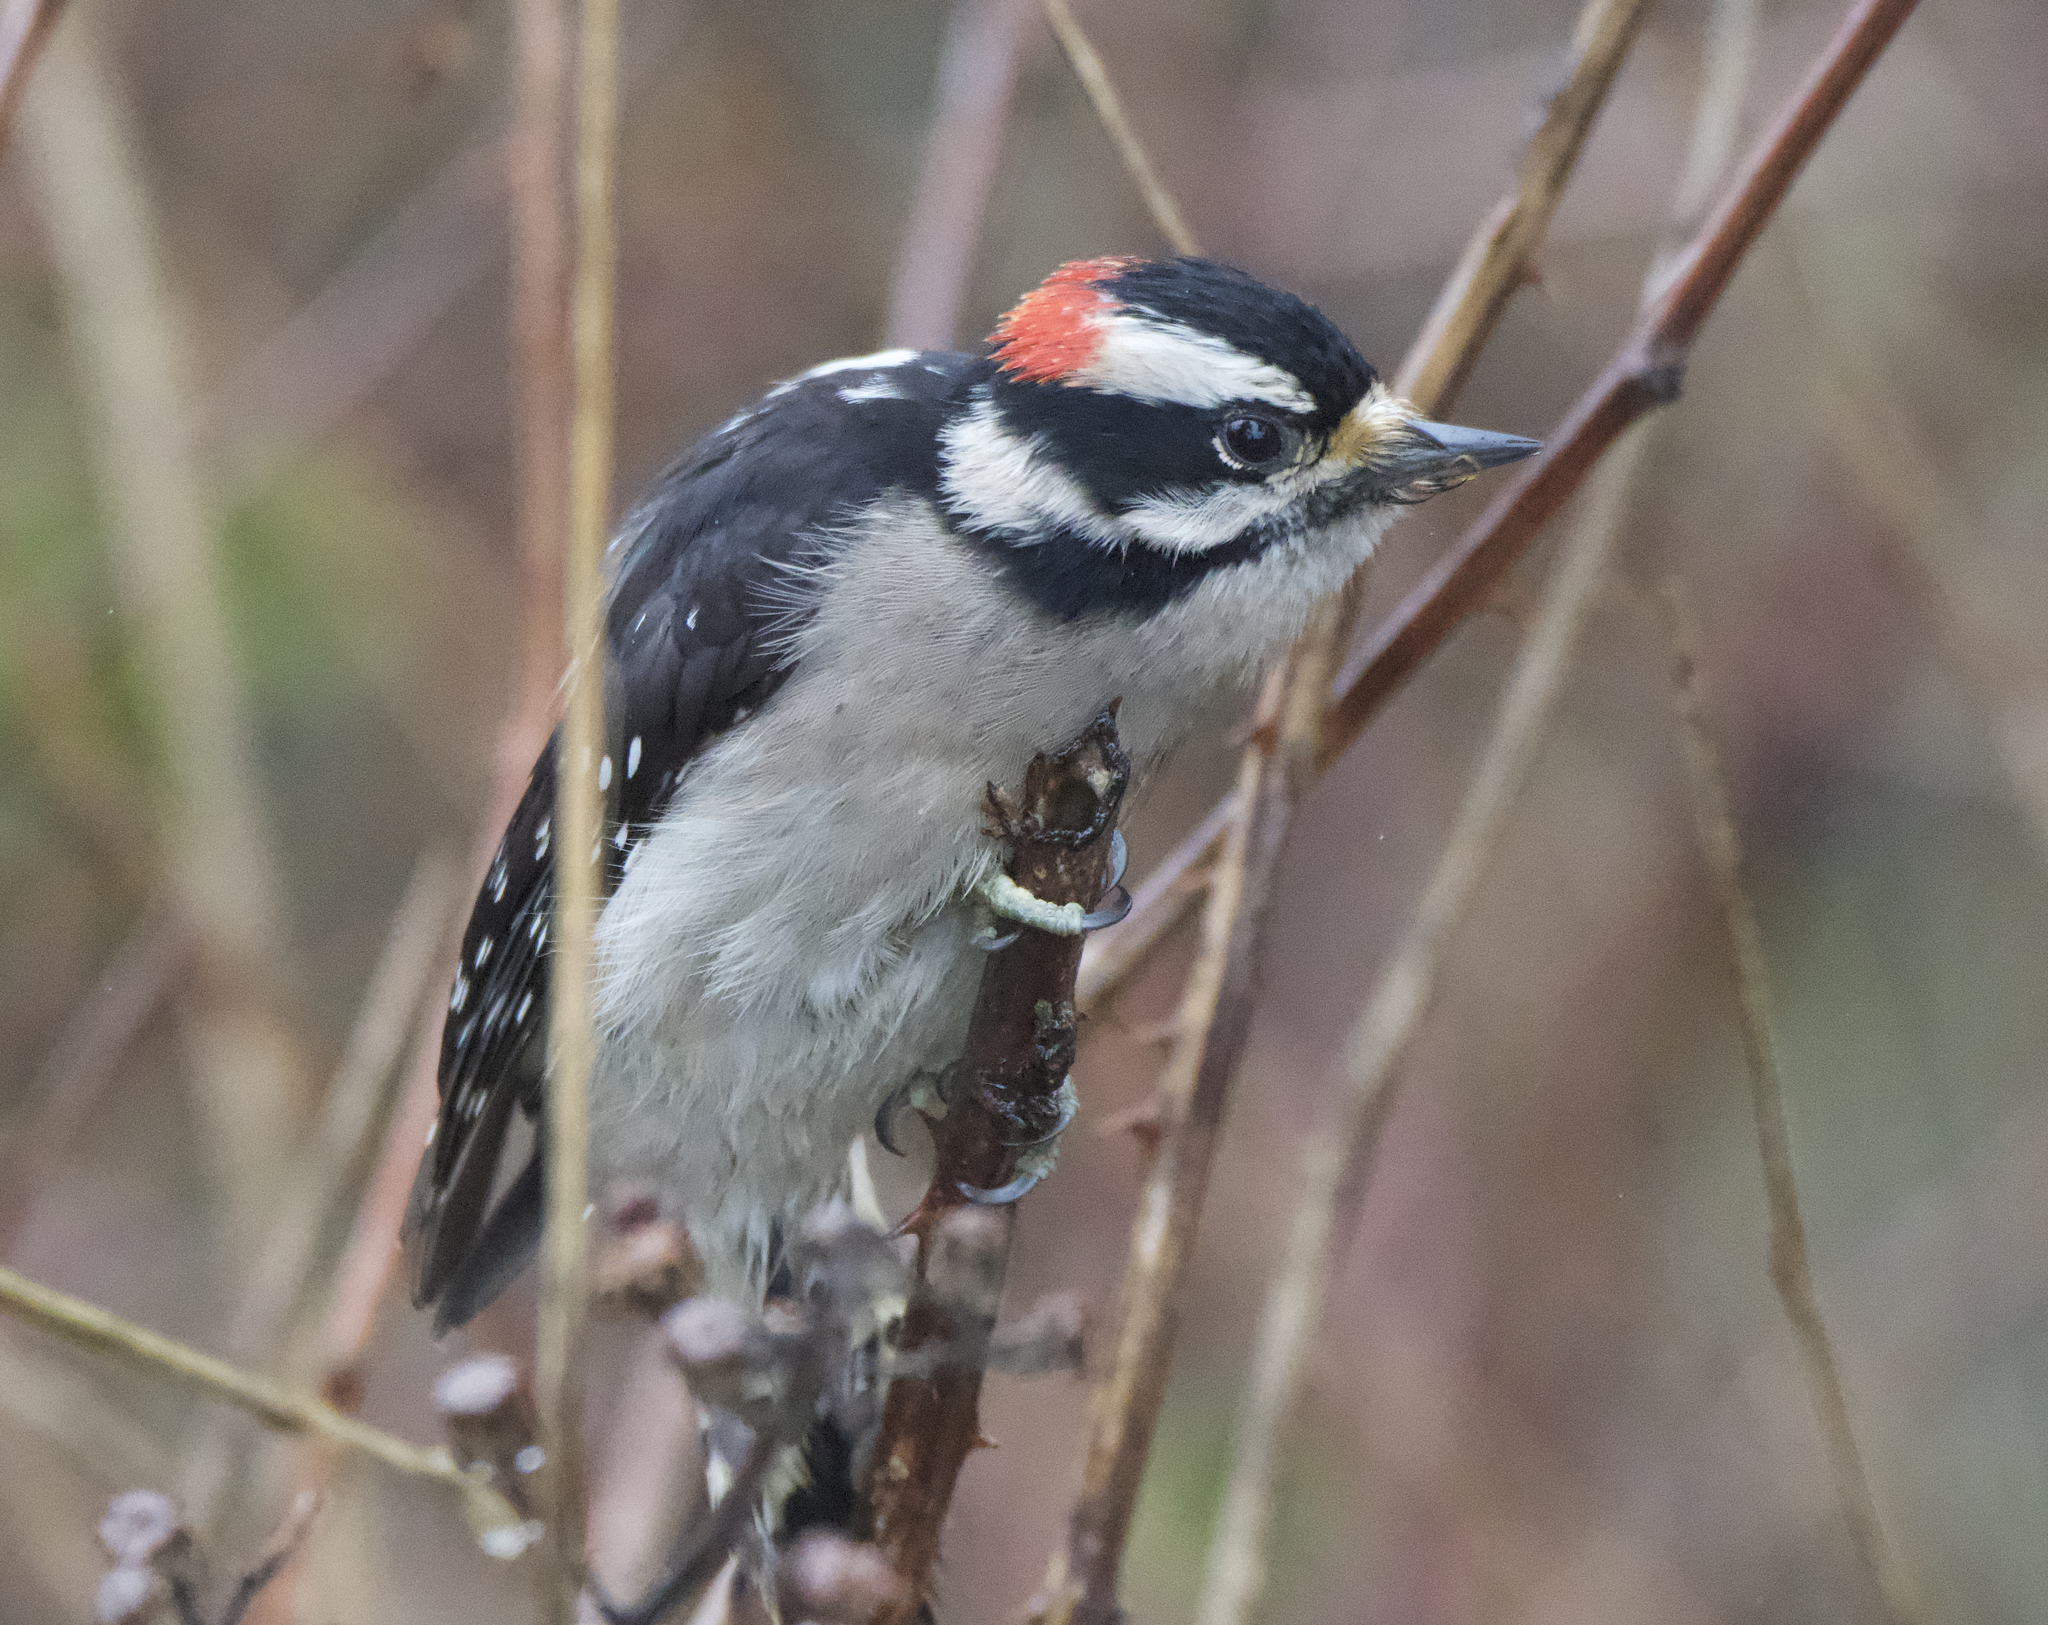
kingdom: Animalia
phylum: Chordata
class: Aves
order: Piciformes
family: Picidae
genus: Dryobates
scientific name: Dryobates pubescens
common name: Downy woodpecker
